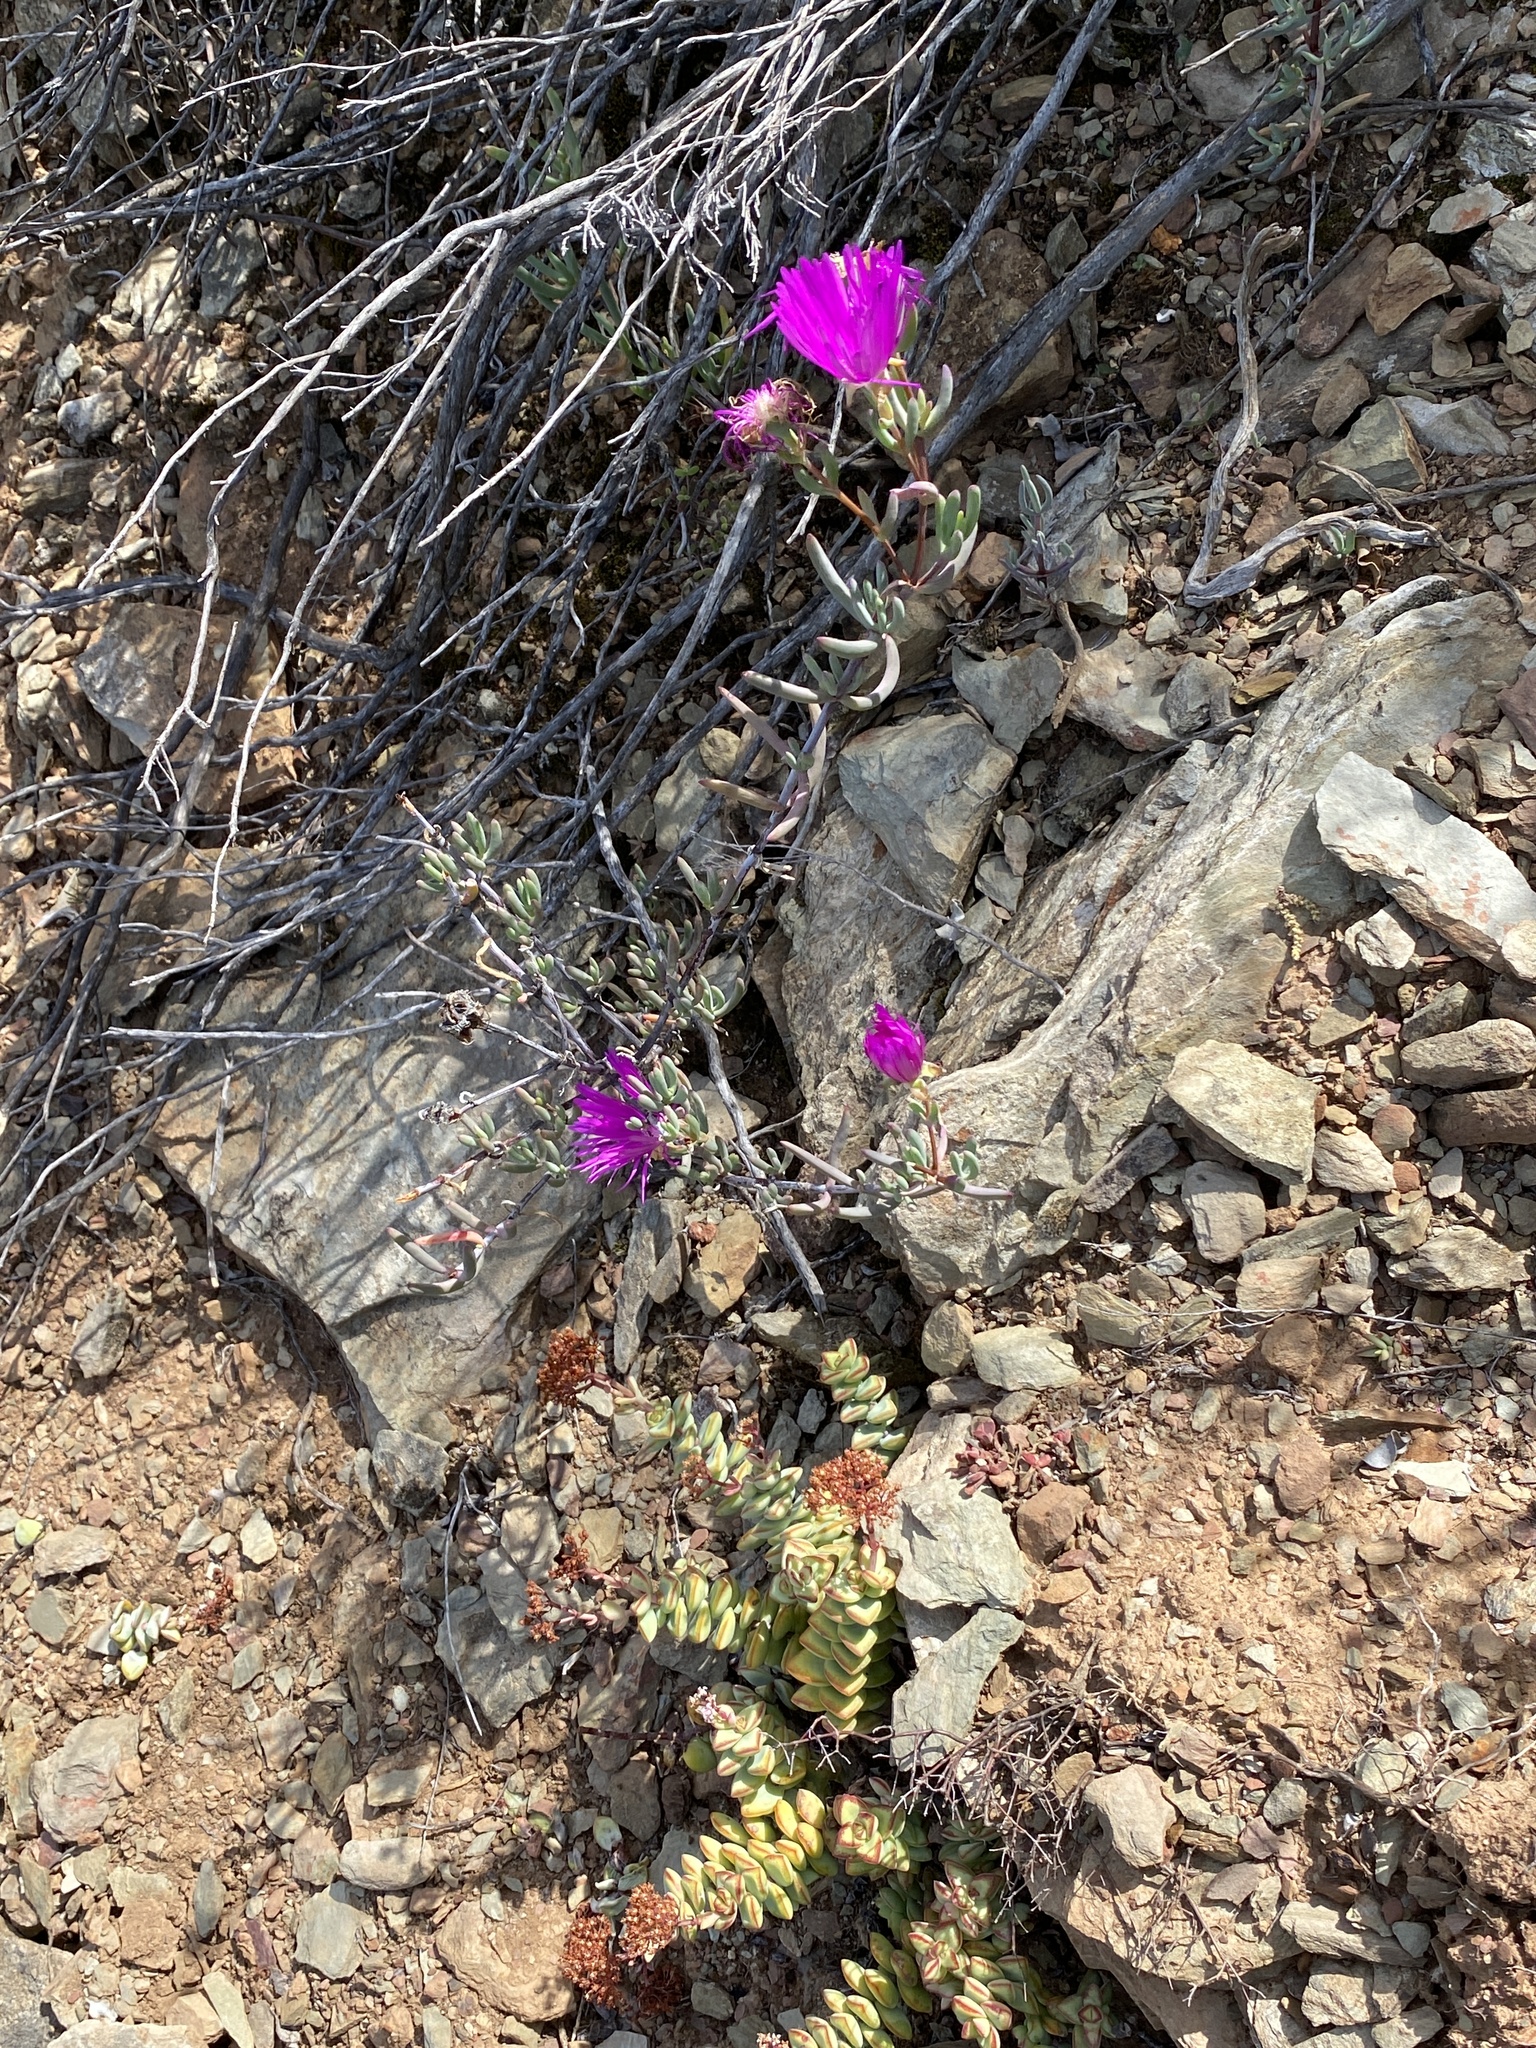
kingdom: Plantae
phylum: Tracheophyta
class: Magnoliopsida
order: Caryophyllales
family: Aizoaceae
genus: Lampranthus
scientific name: Lampranthus haworthii
